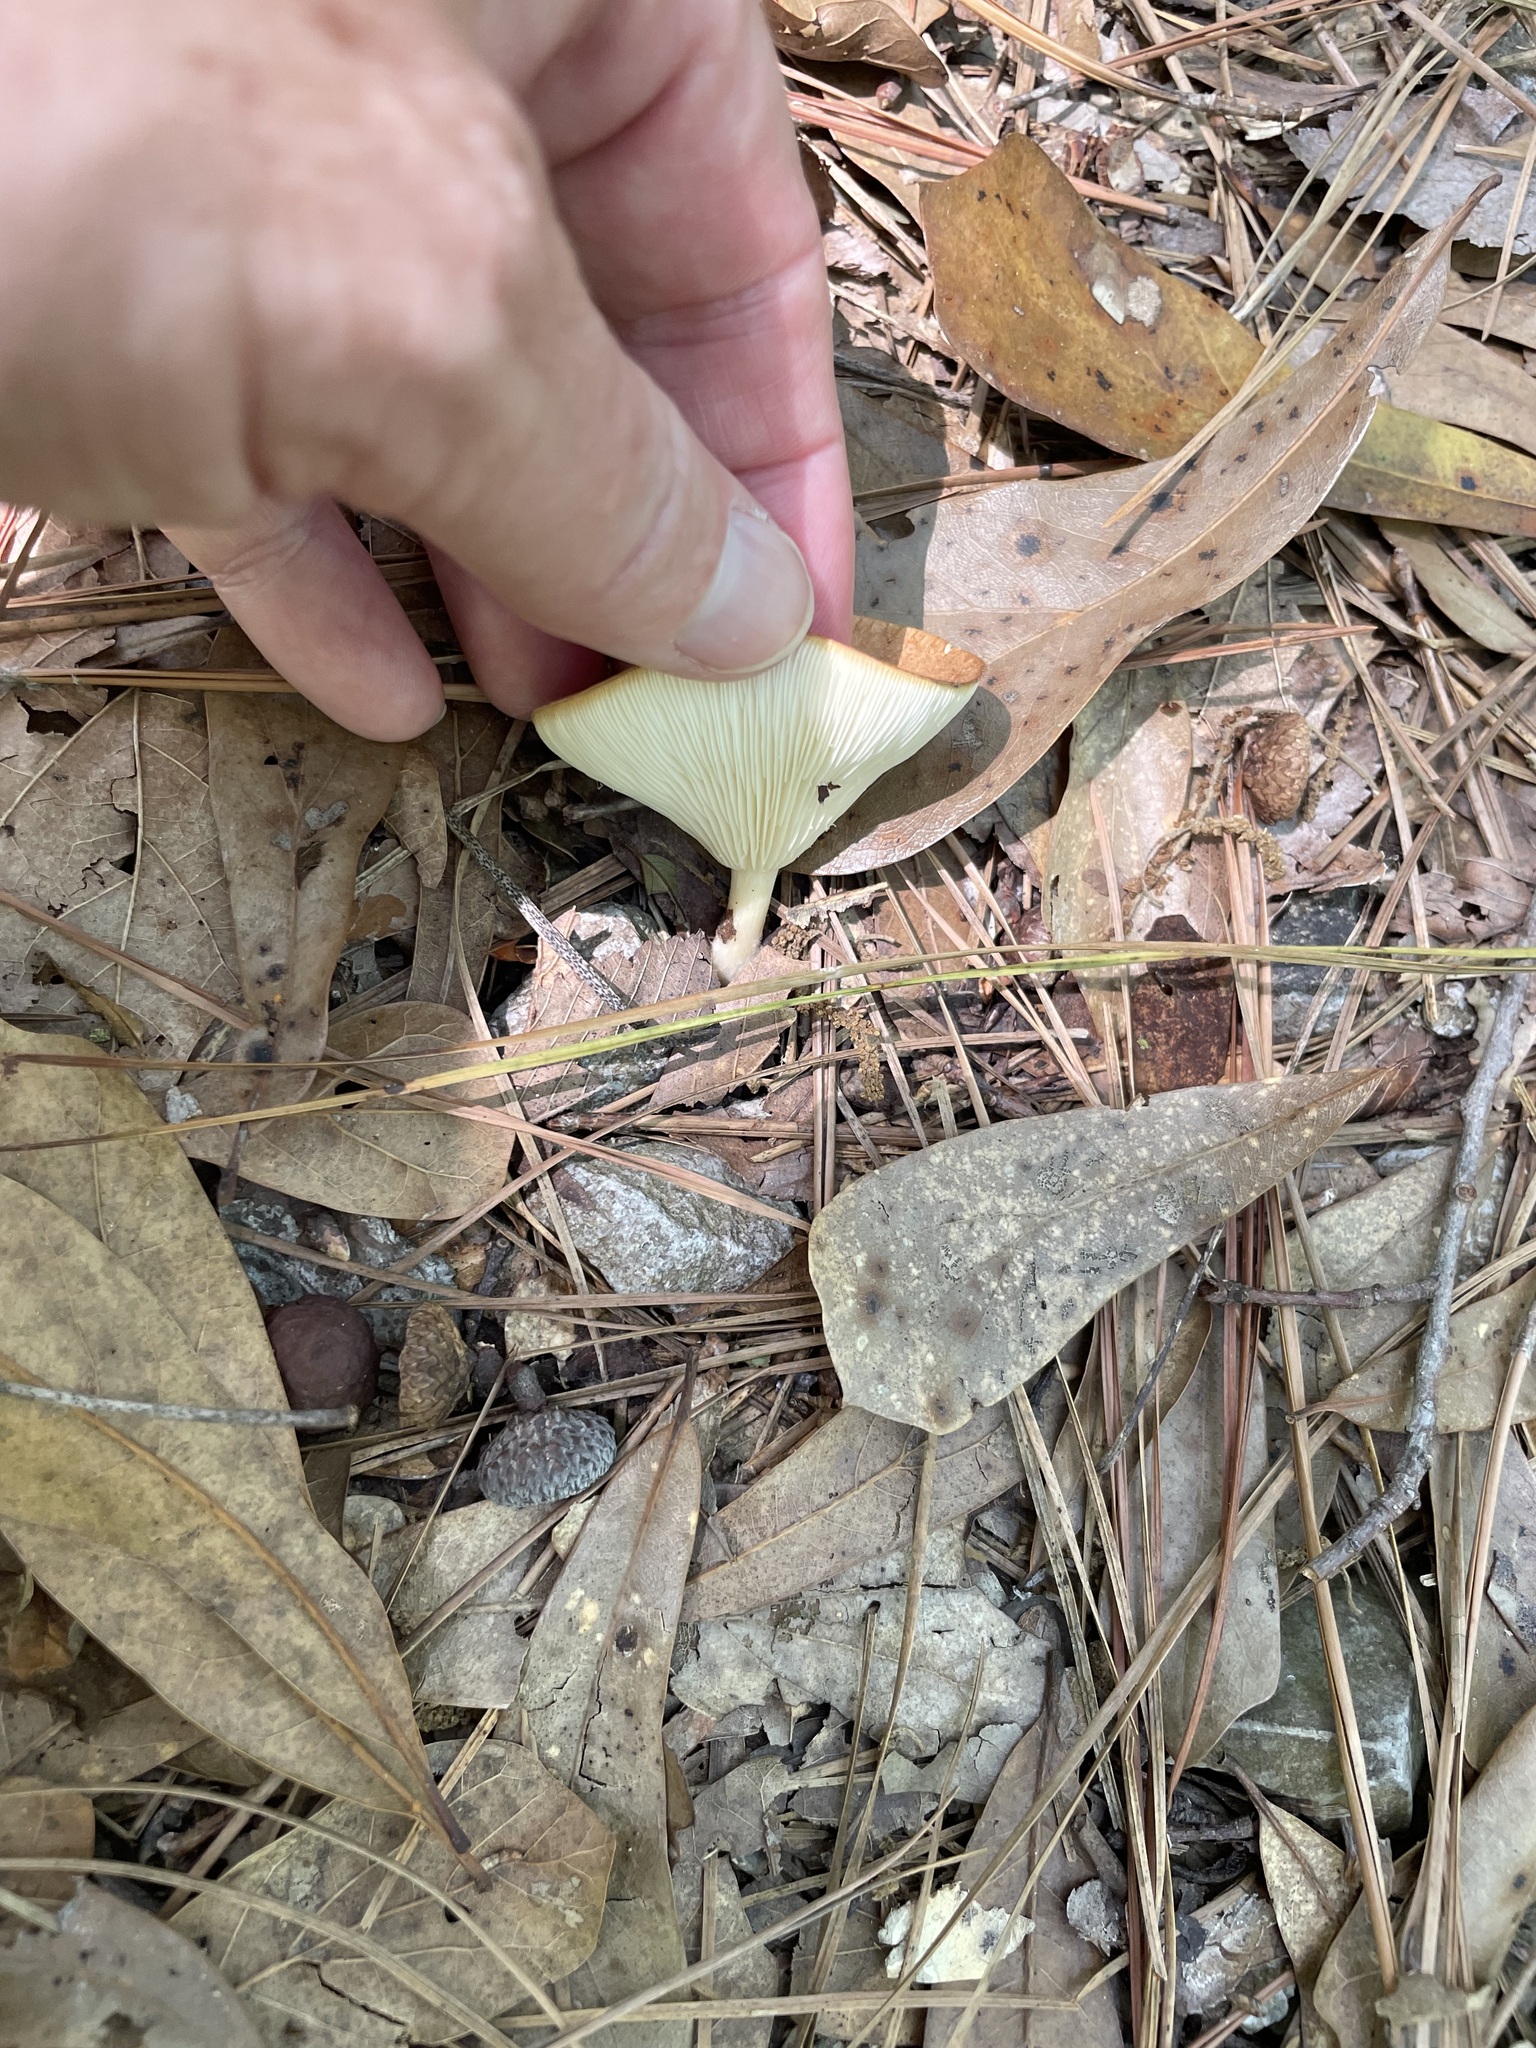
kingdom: Fungi
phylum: Basidiomycota
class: Agaricomycetes
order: Agaricales
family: Tricholomataceae
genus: Infundibulicybe
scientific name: Infundibulicybe gibba
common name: Common funnel
